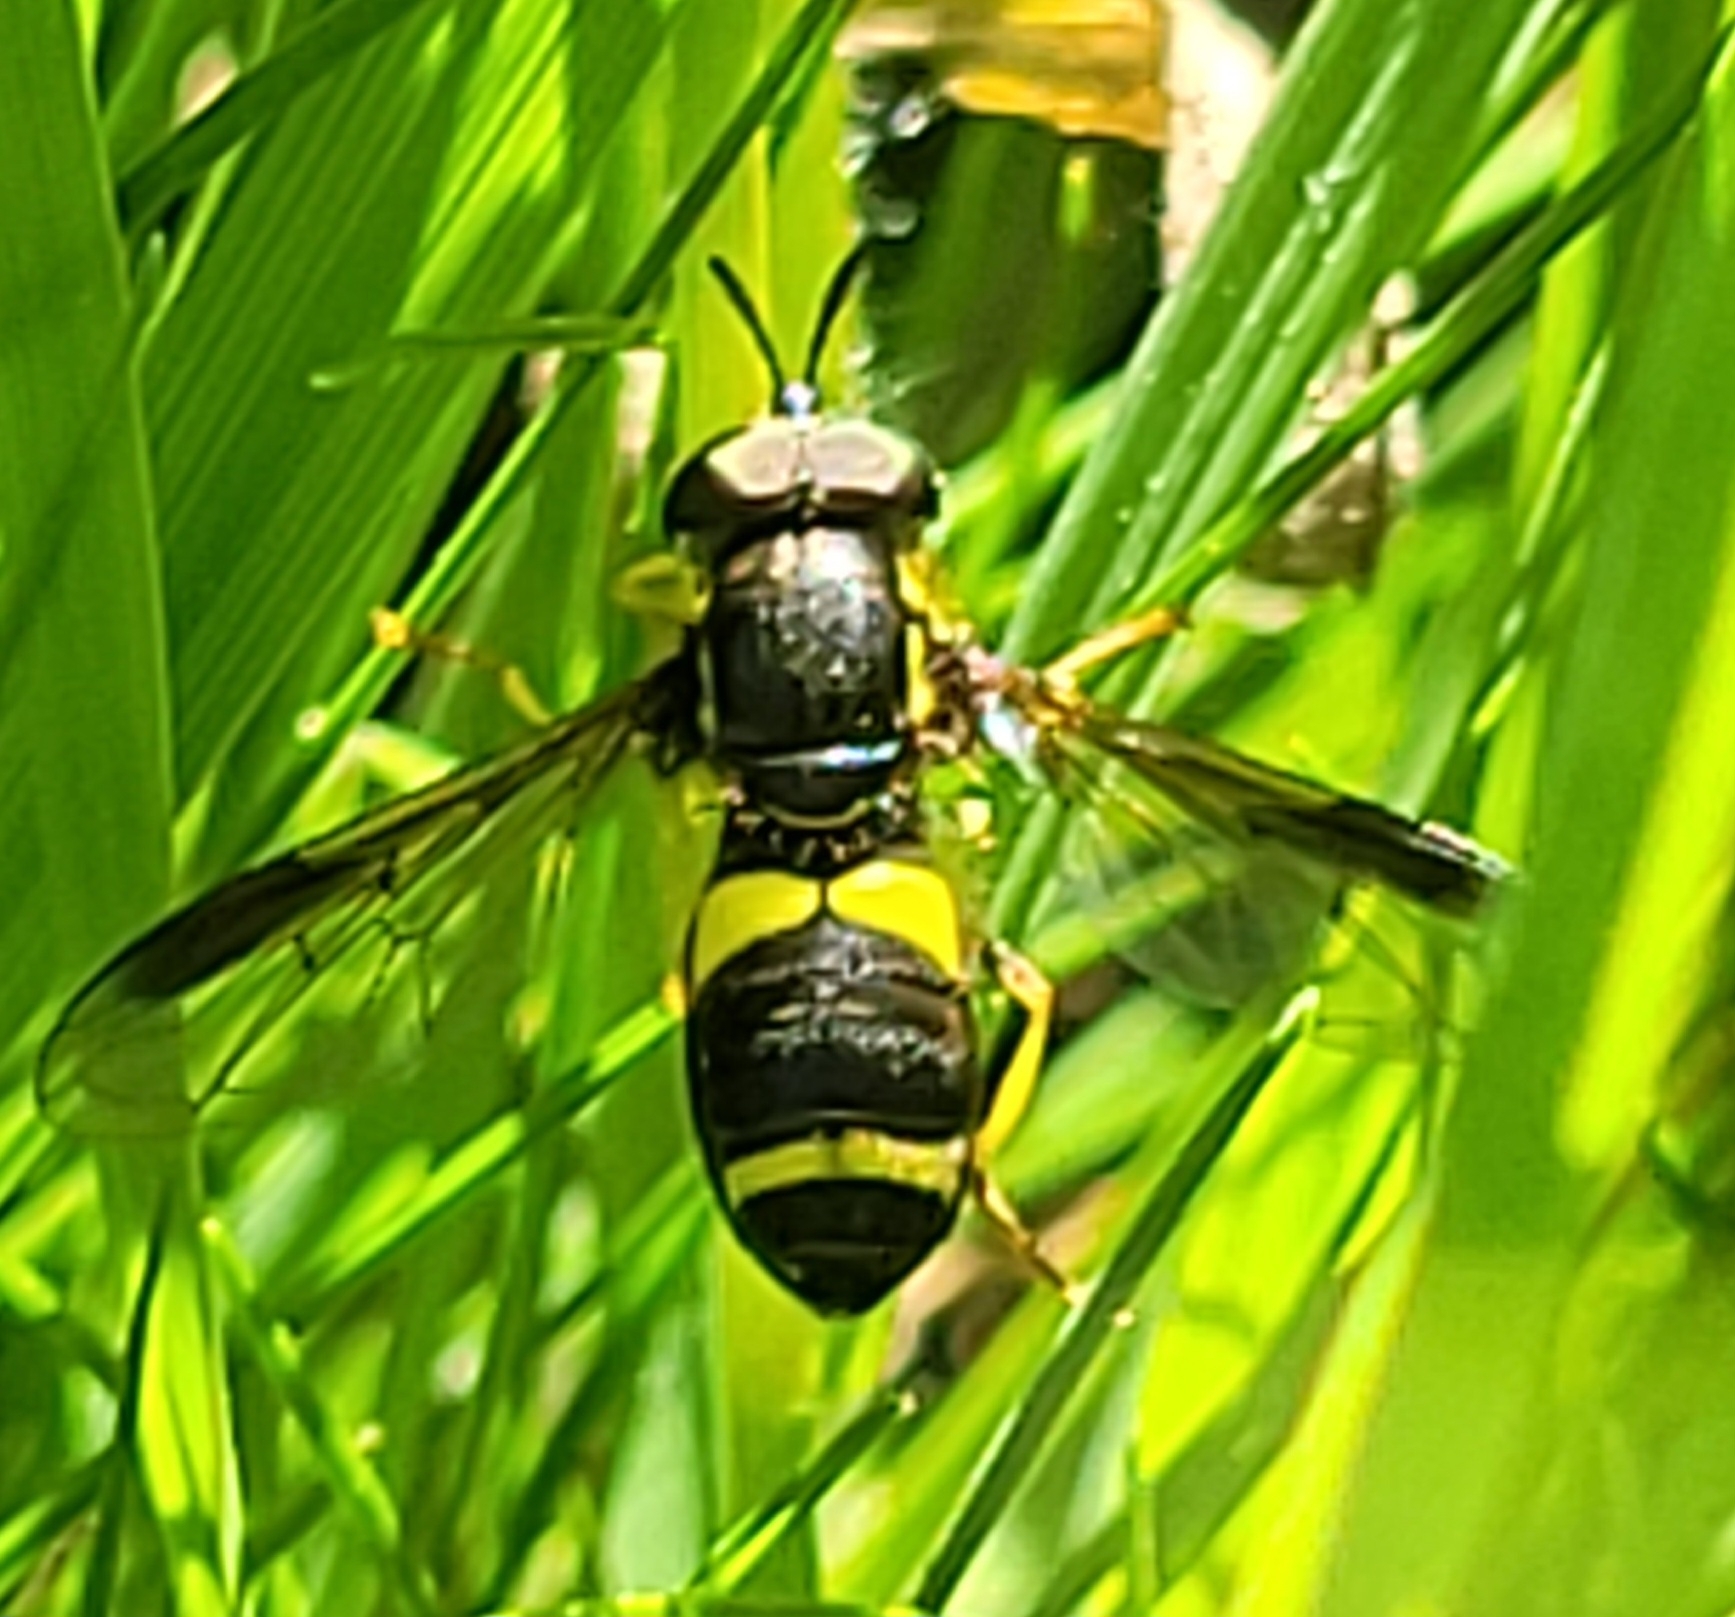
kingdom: Animalia
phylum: Arthropoda
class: Insecta
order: Diptera
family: Syrphidae
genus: Chrysotoxum
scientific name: Chrysotoxum bicincta
